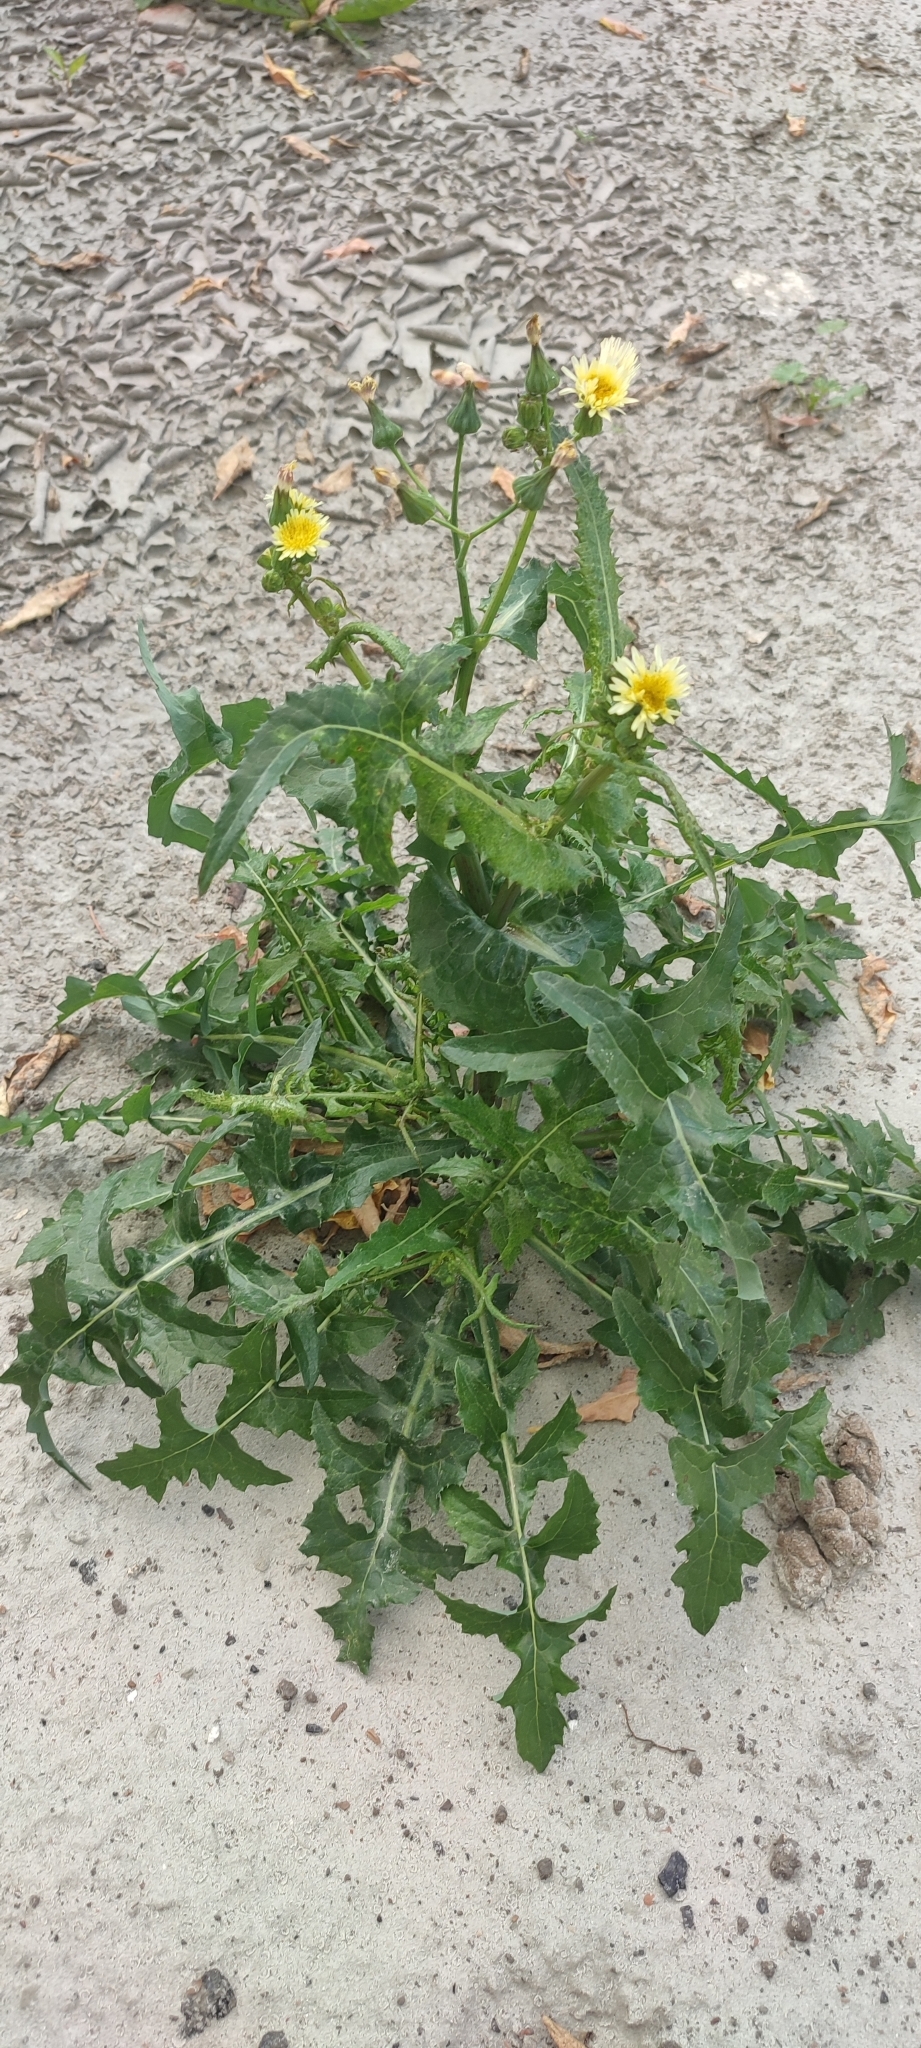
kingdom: Plantae
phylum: Tracheophyta
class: Magnoliopsida
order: Asterales
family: Asteraceae
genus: Sonchus
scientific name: Sonchus oleraceus
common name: Common sowthistle
